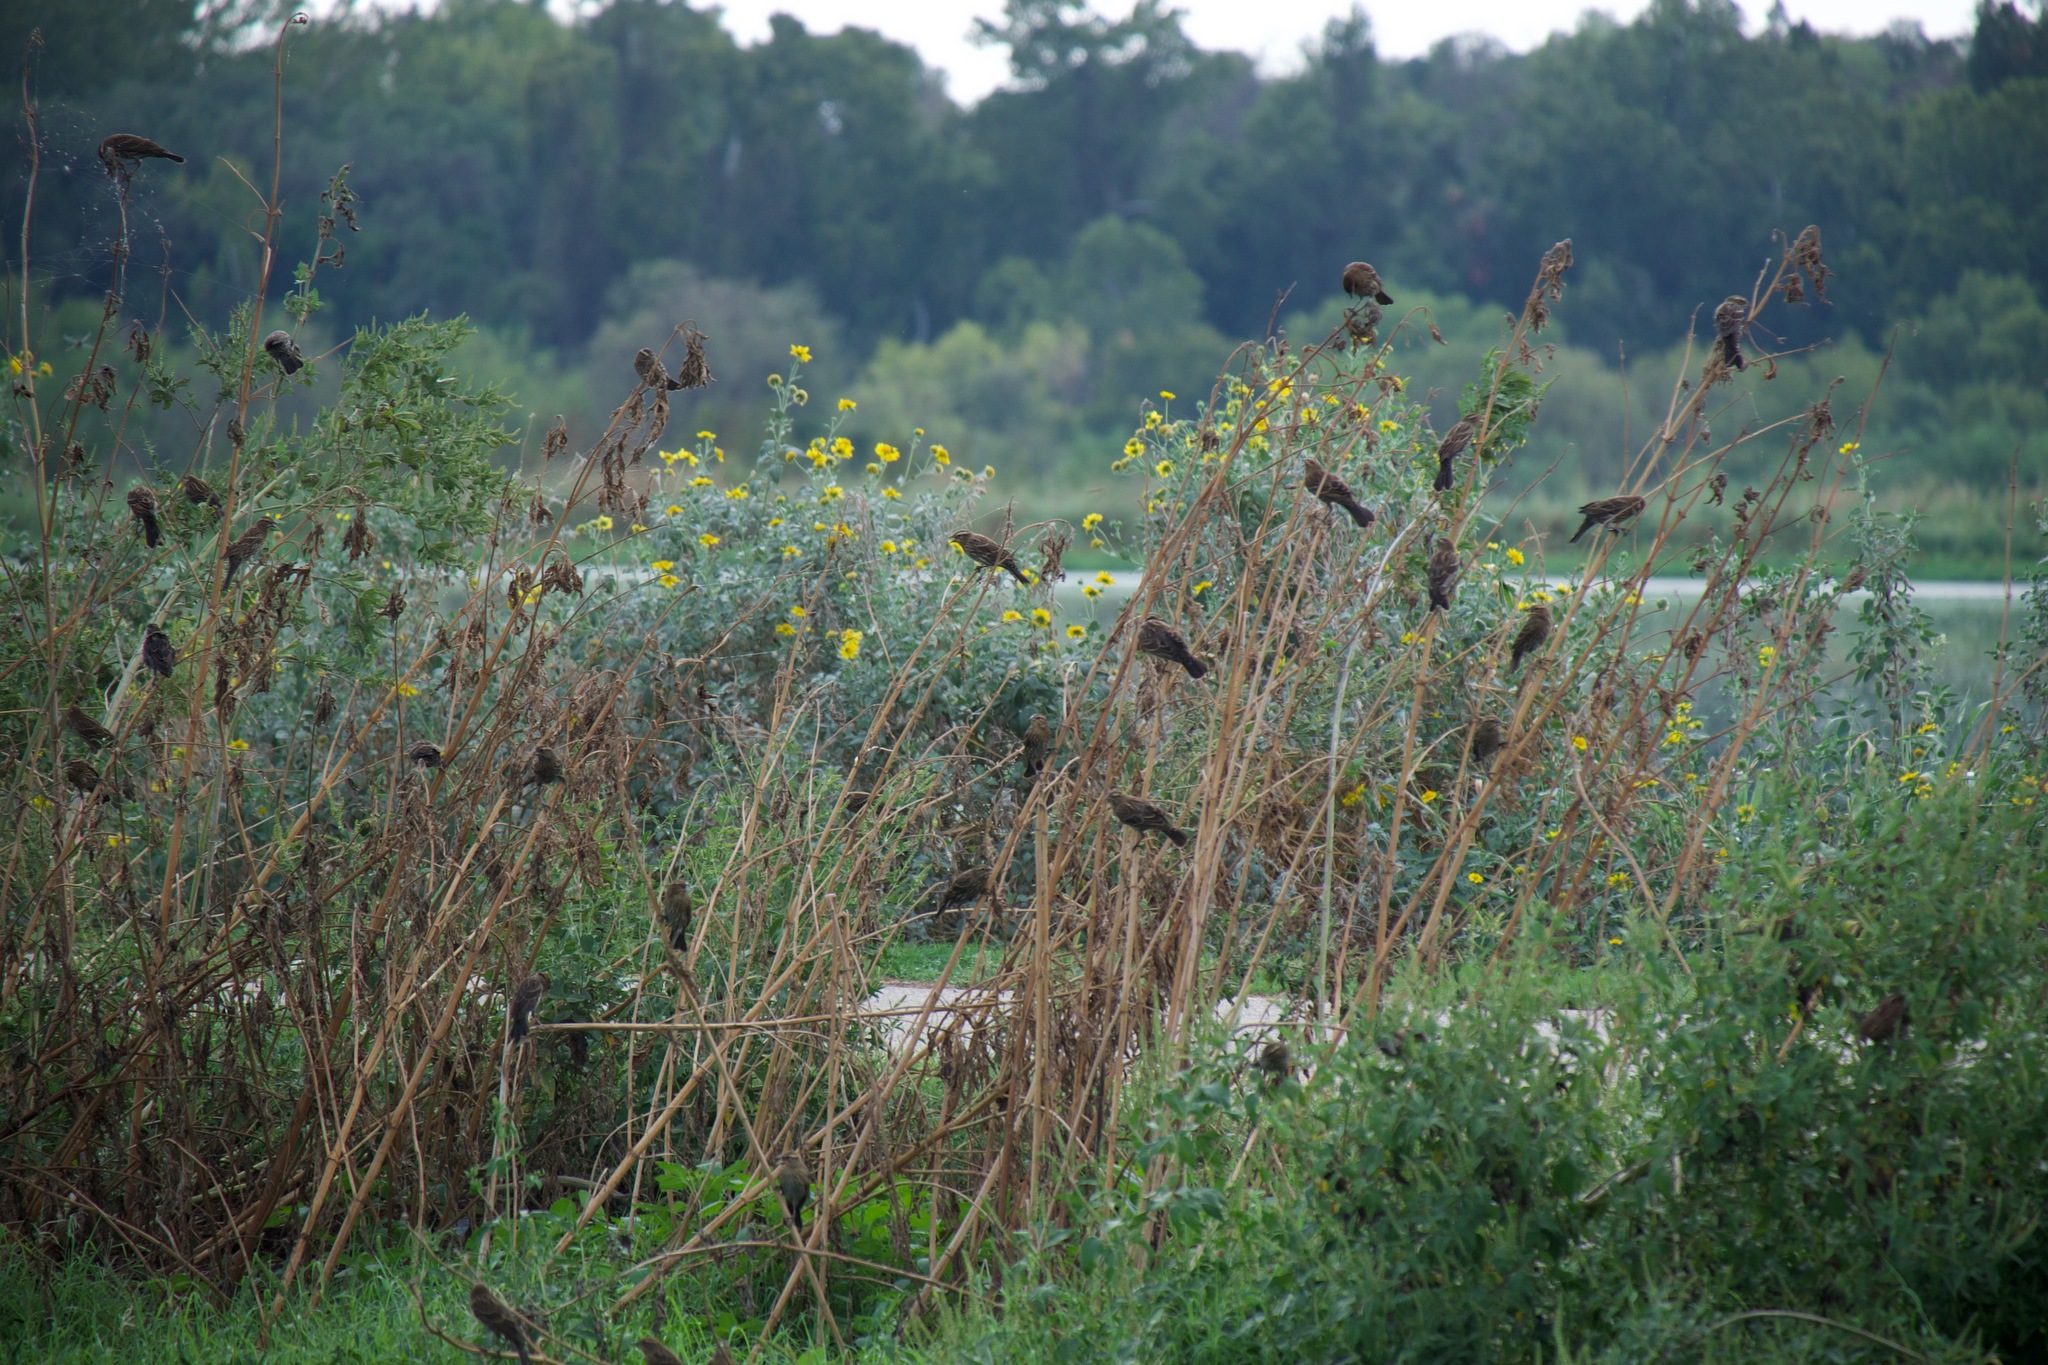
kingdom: Animalia
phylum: Chordata
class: Aves
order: Passeriformes
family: Icteridae
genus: Agelaius
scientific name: Agelaius phoeniceus
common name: Red-winged blackbird
